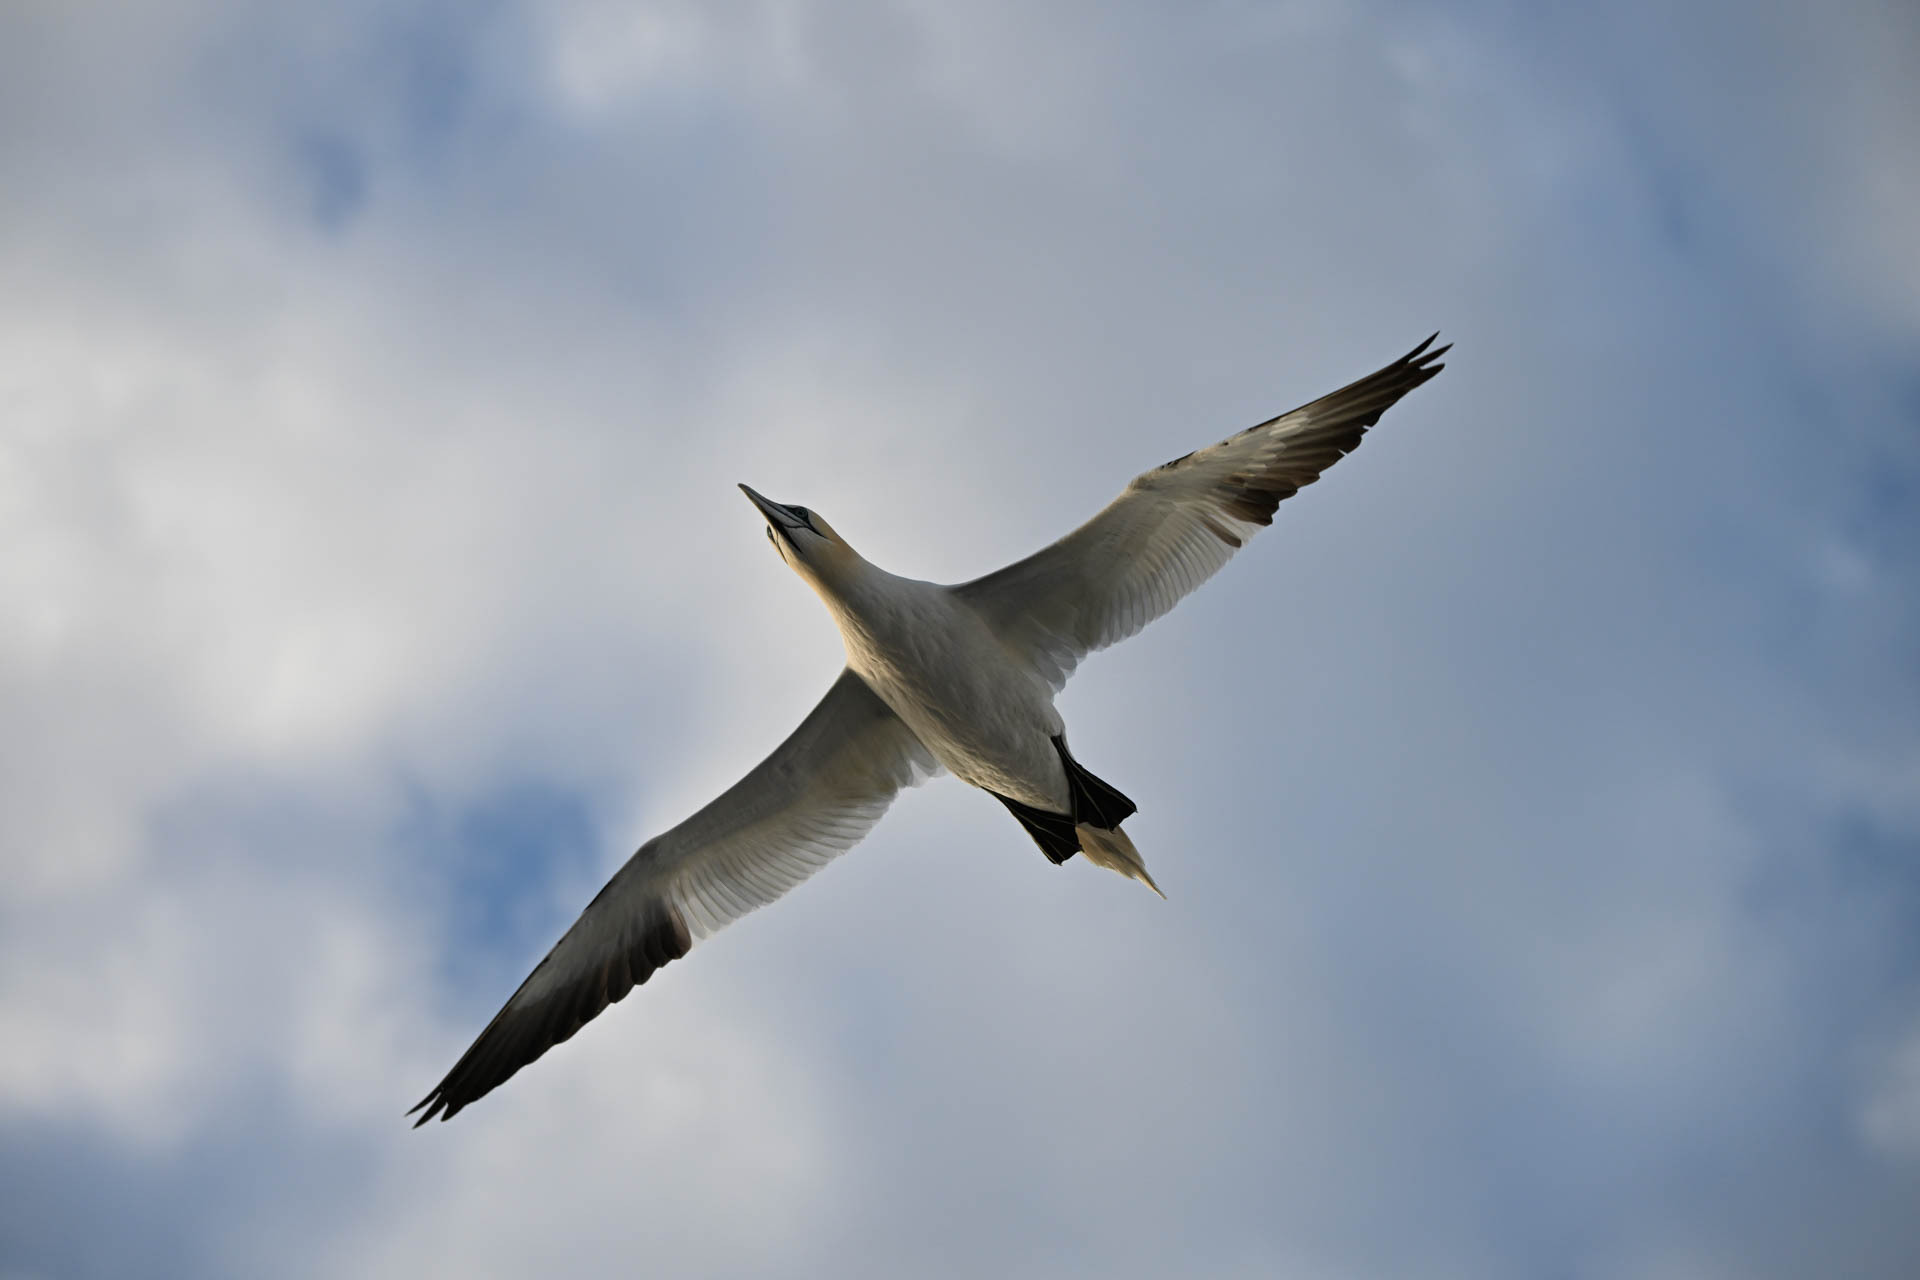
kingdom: Animalia
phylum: Chordata
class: Aves
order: Suliformes
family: Sulidae
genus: Morus
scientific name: Morus bassanus
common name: Northern gannet
